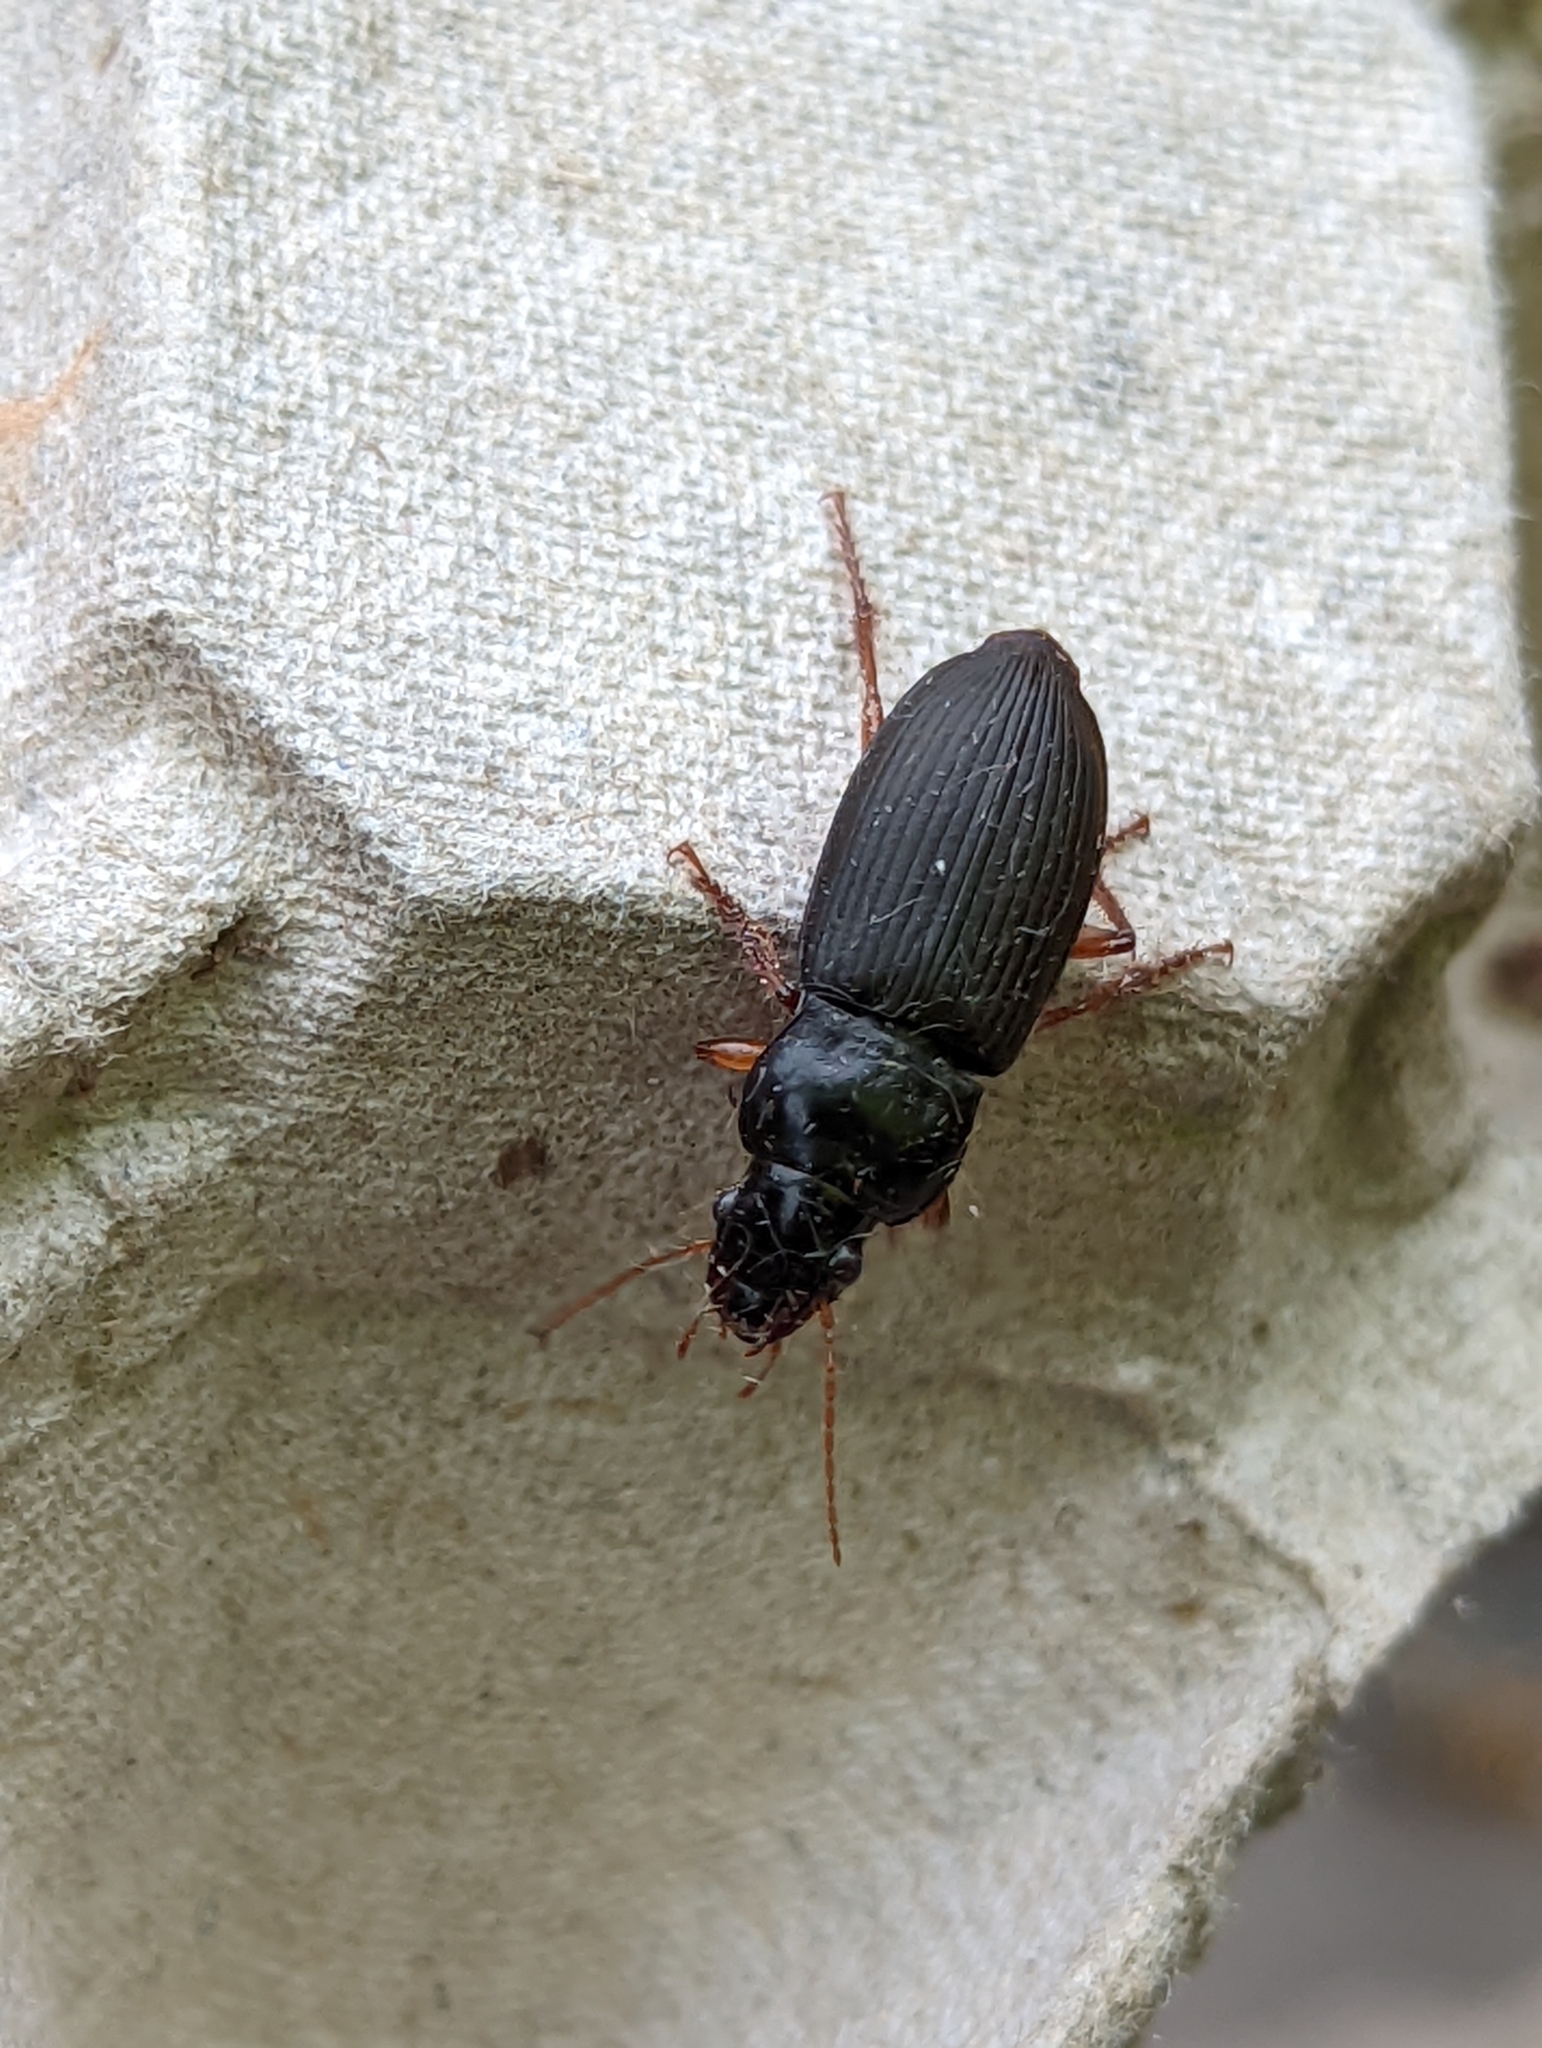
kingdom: Animalia
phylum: Arthropoda
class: Insecta
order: Coleoptera
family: Carabidae
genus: Harpalus
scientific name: Harpalus rufipes
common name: Strawberry harp ground beetle
